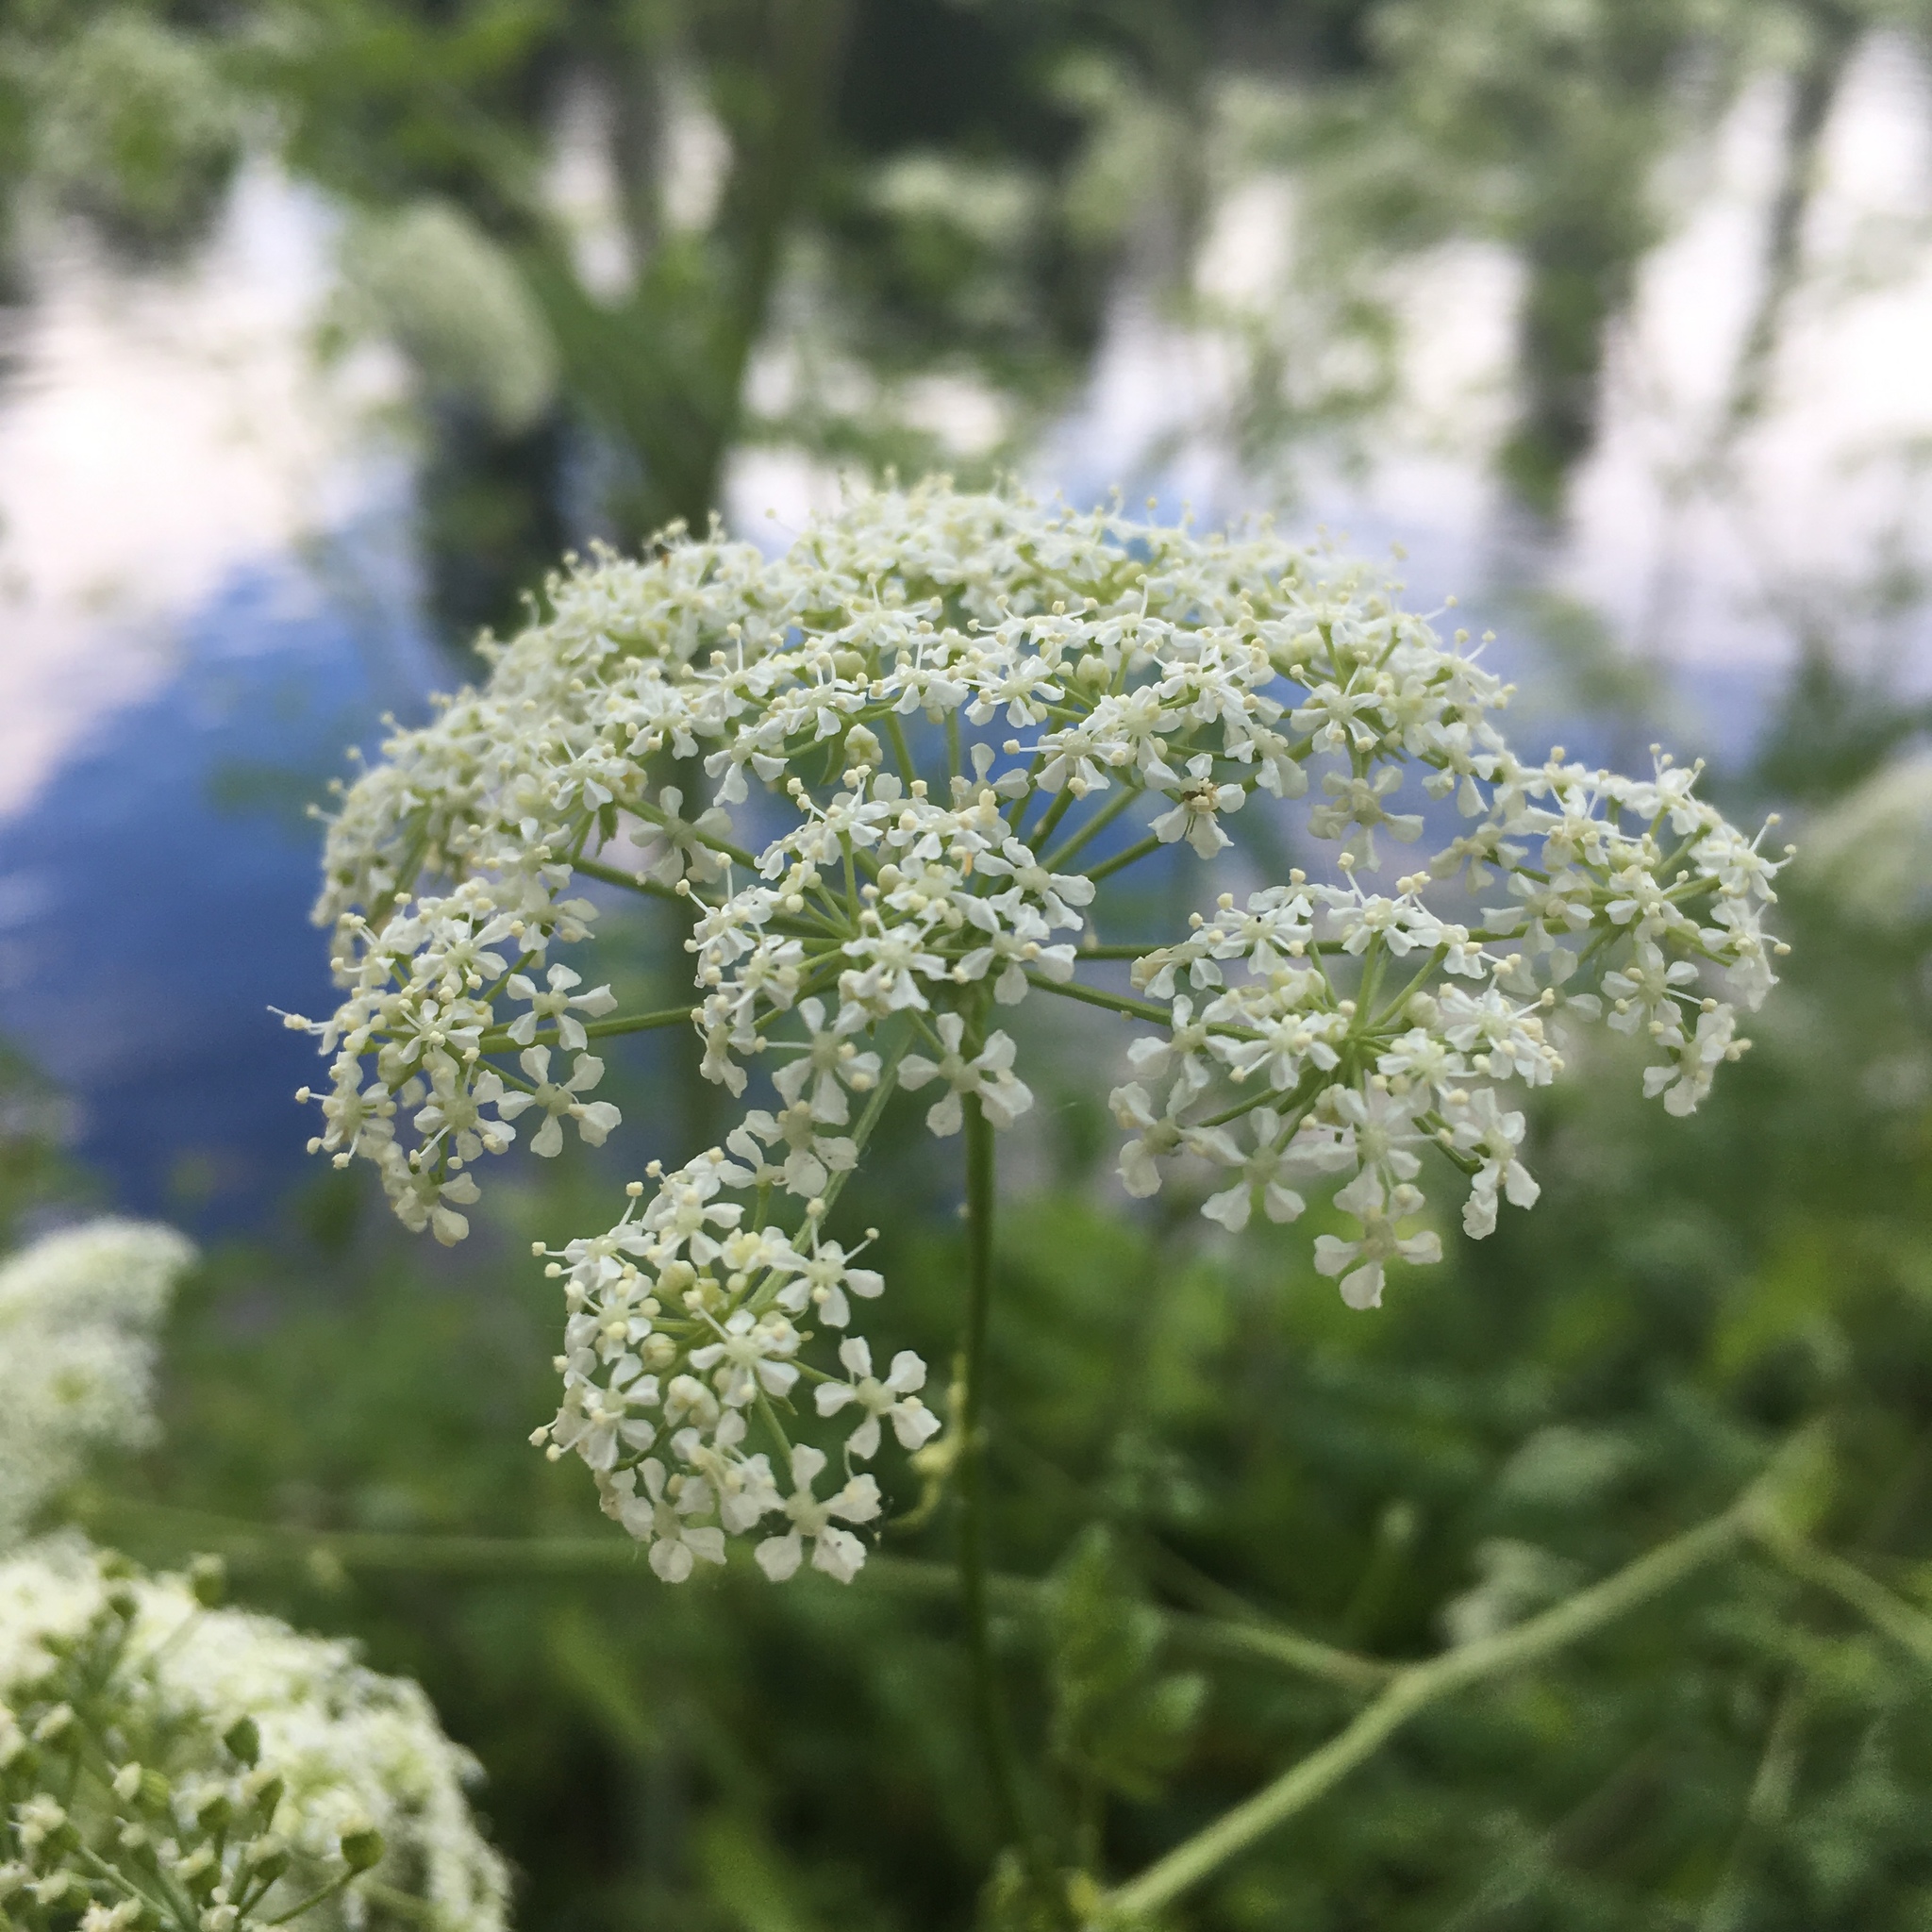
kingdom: Plantae
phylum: Tracheophyta
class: Magnoliopsida
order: Apiales
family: Apiaceae
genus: Conium
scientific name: Conium maculatum
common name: Hemlock
